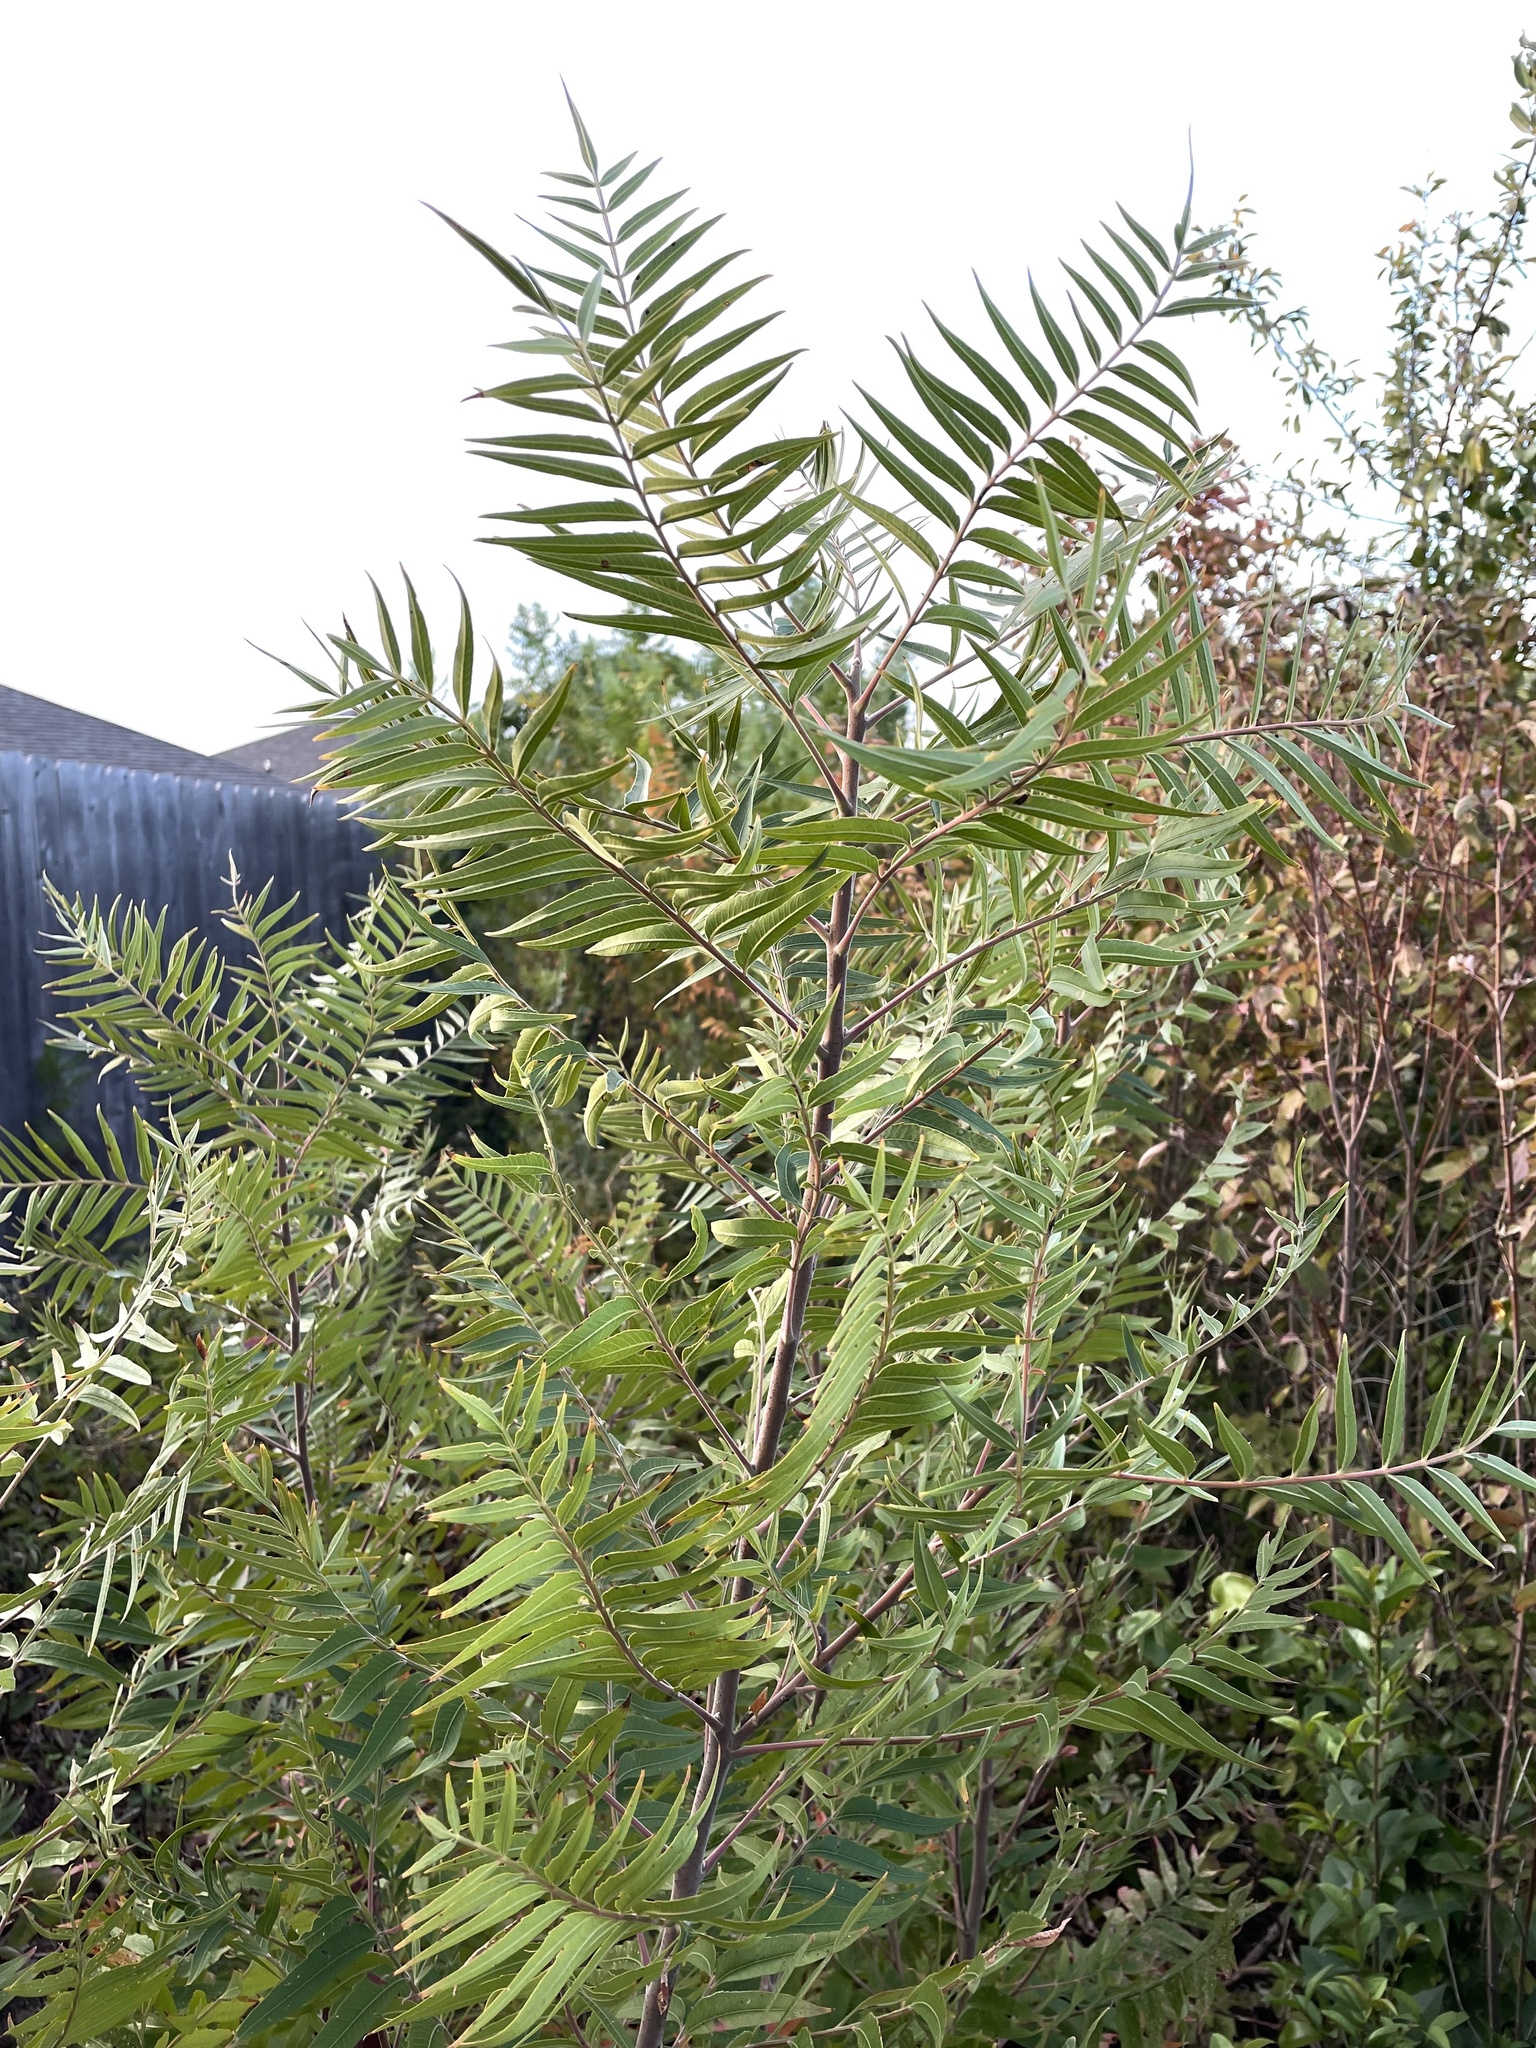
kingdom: Plantae
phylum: Tracheophyta
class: Magnoliopsida
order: Sapindales
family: Anacardiaceae
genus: Rhus
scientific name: Rhus lanceolata
